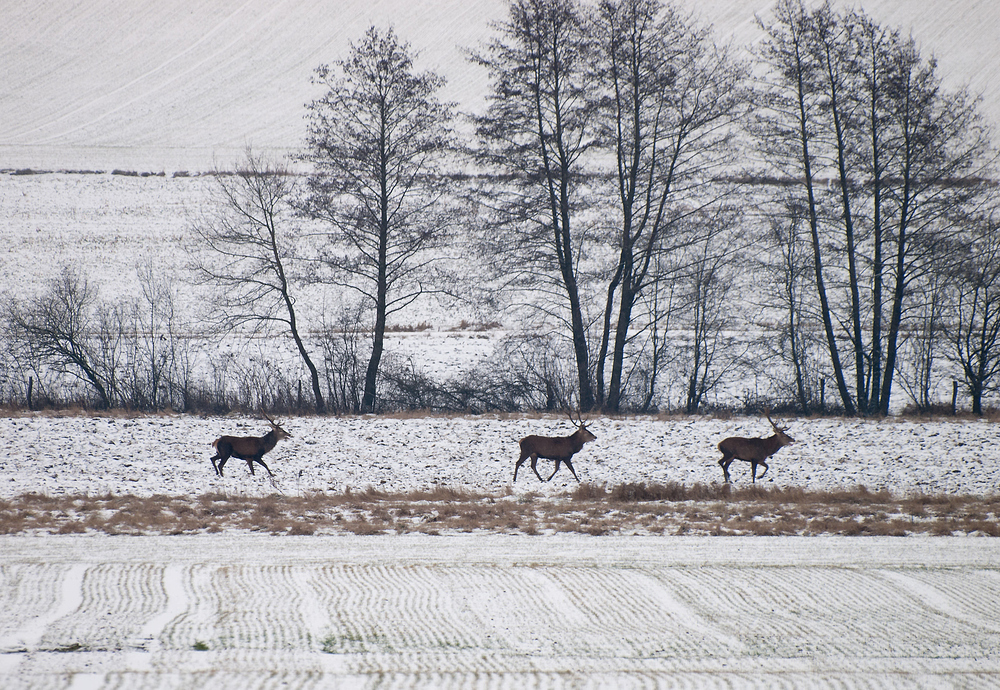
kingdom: Animalia
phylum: Chordata
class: Mammalia
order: Artiodactyla
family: Cervidae
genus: Cervus
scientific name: Cervus elaphus
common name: Red deer
